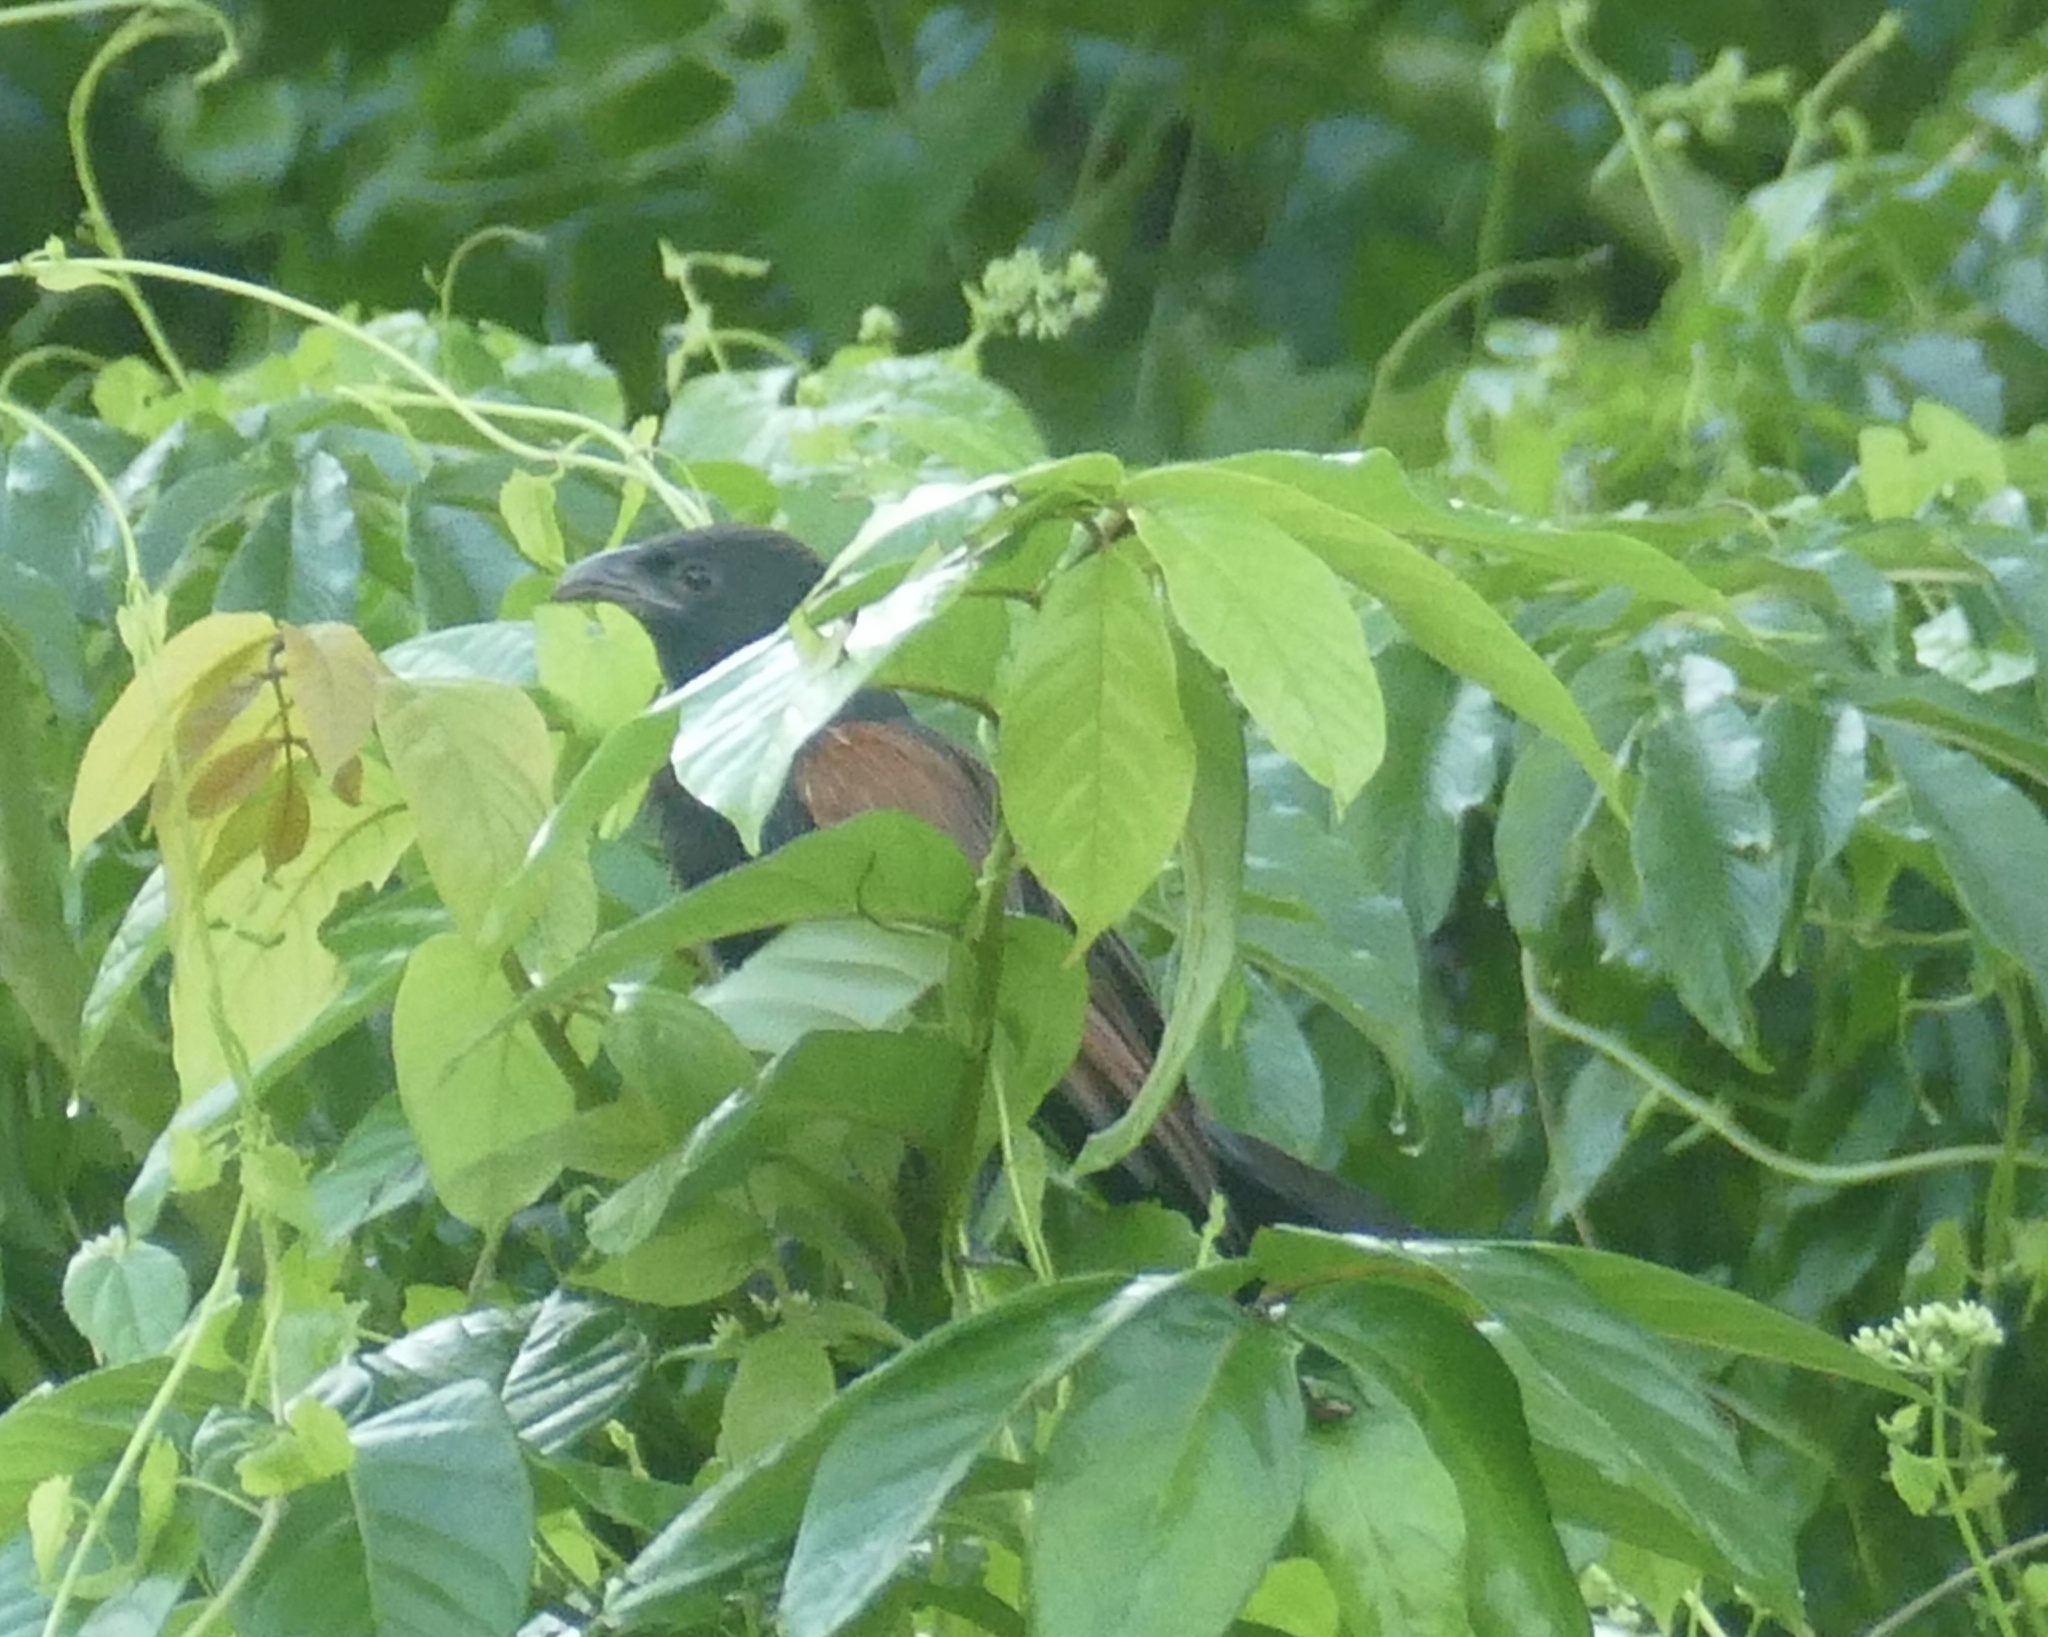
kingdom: Animalia
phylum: Chordata
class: Aves
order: Cuculiformes
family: Cuculidae
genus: Centropus
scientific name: Centropus bengalensis
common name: Lesser coucal
